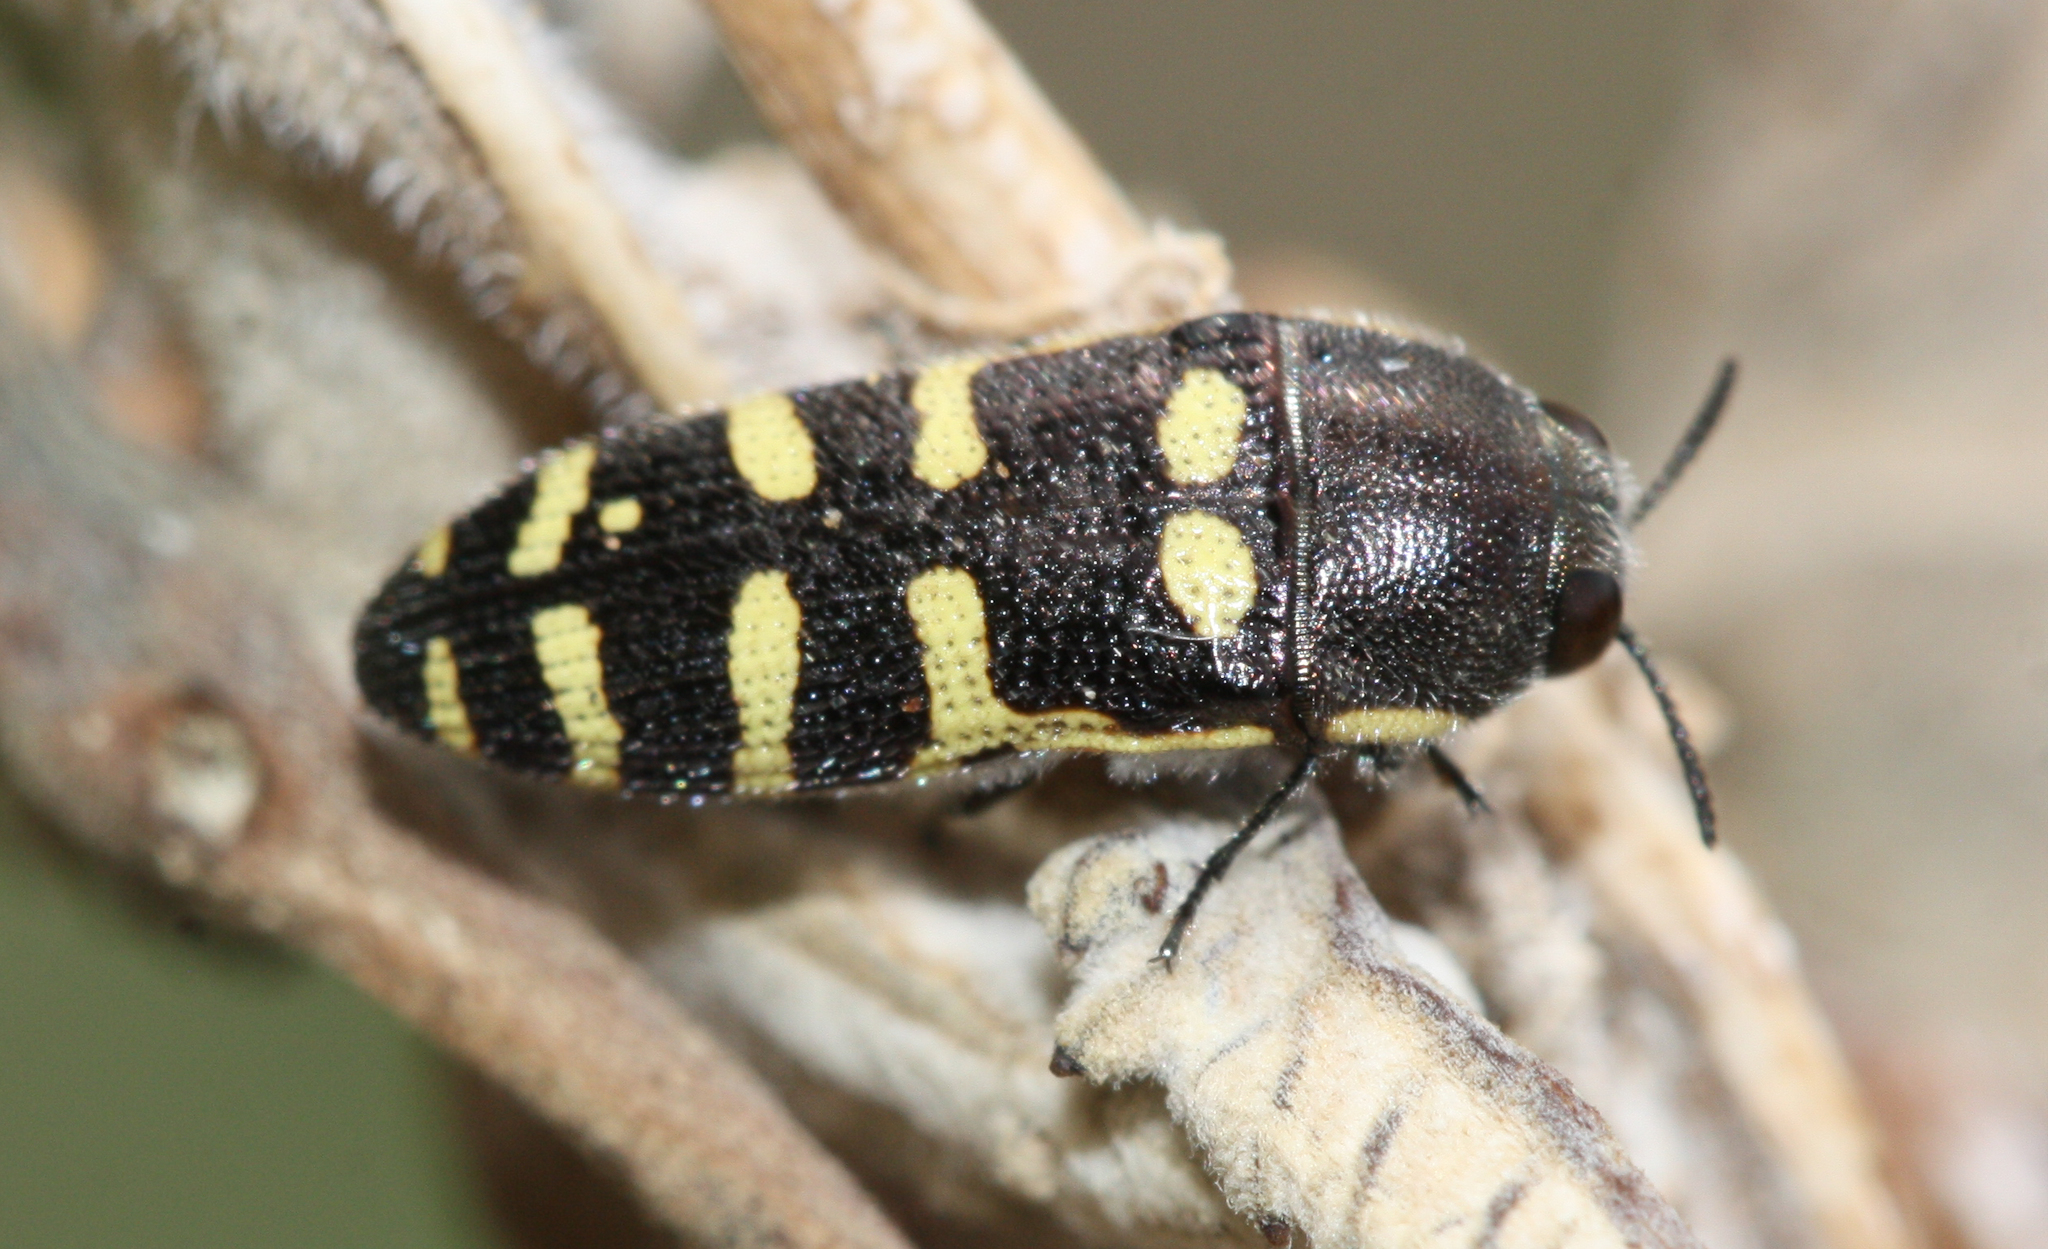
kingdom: Animalia
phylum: Arthropoda
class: Insecta
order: Coleoptera
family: Buprestidae
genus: Acmaeodera
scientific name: Acmaeodera alicia
